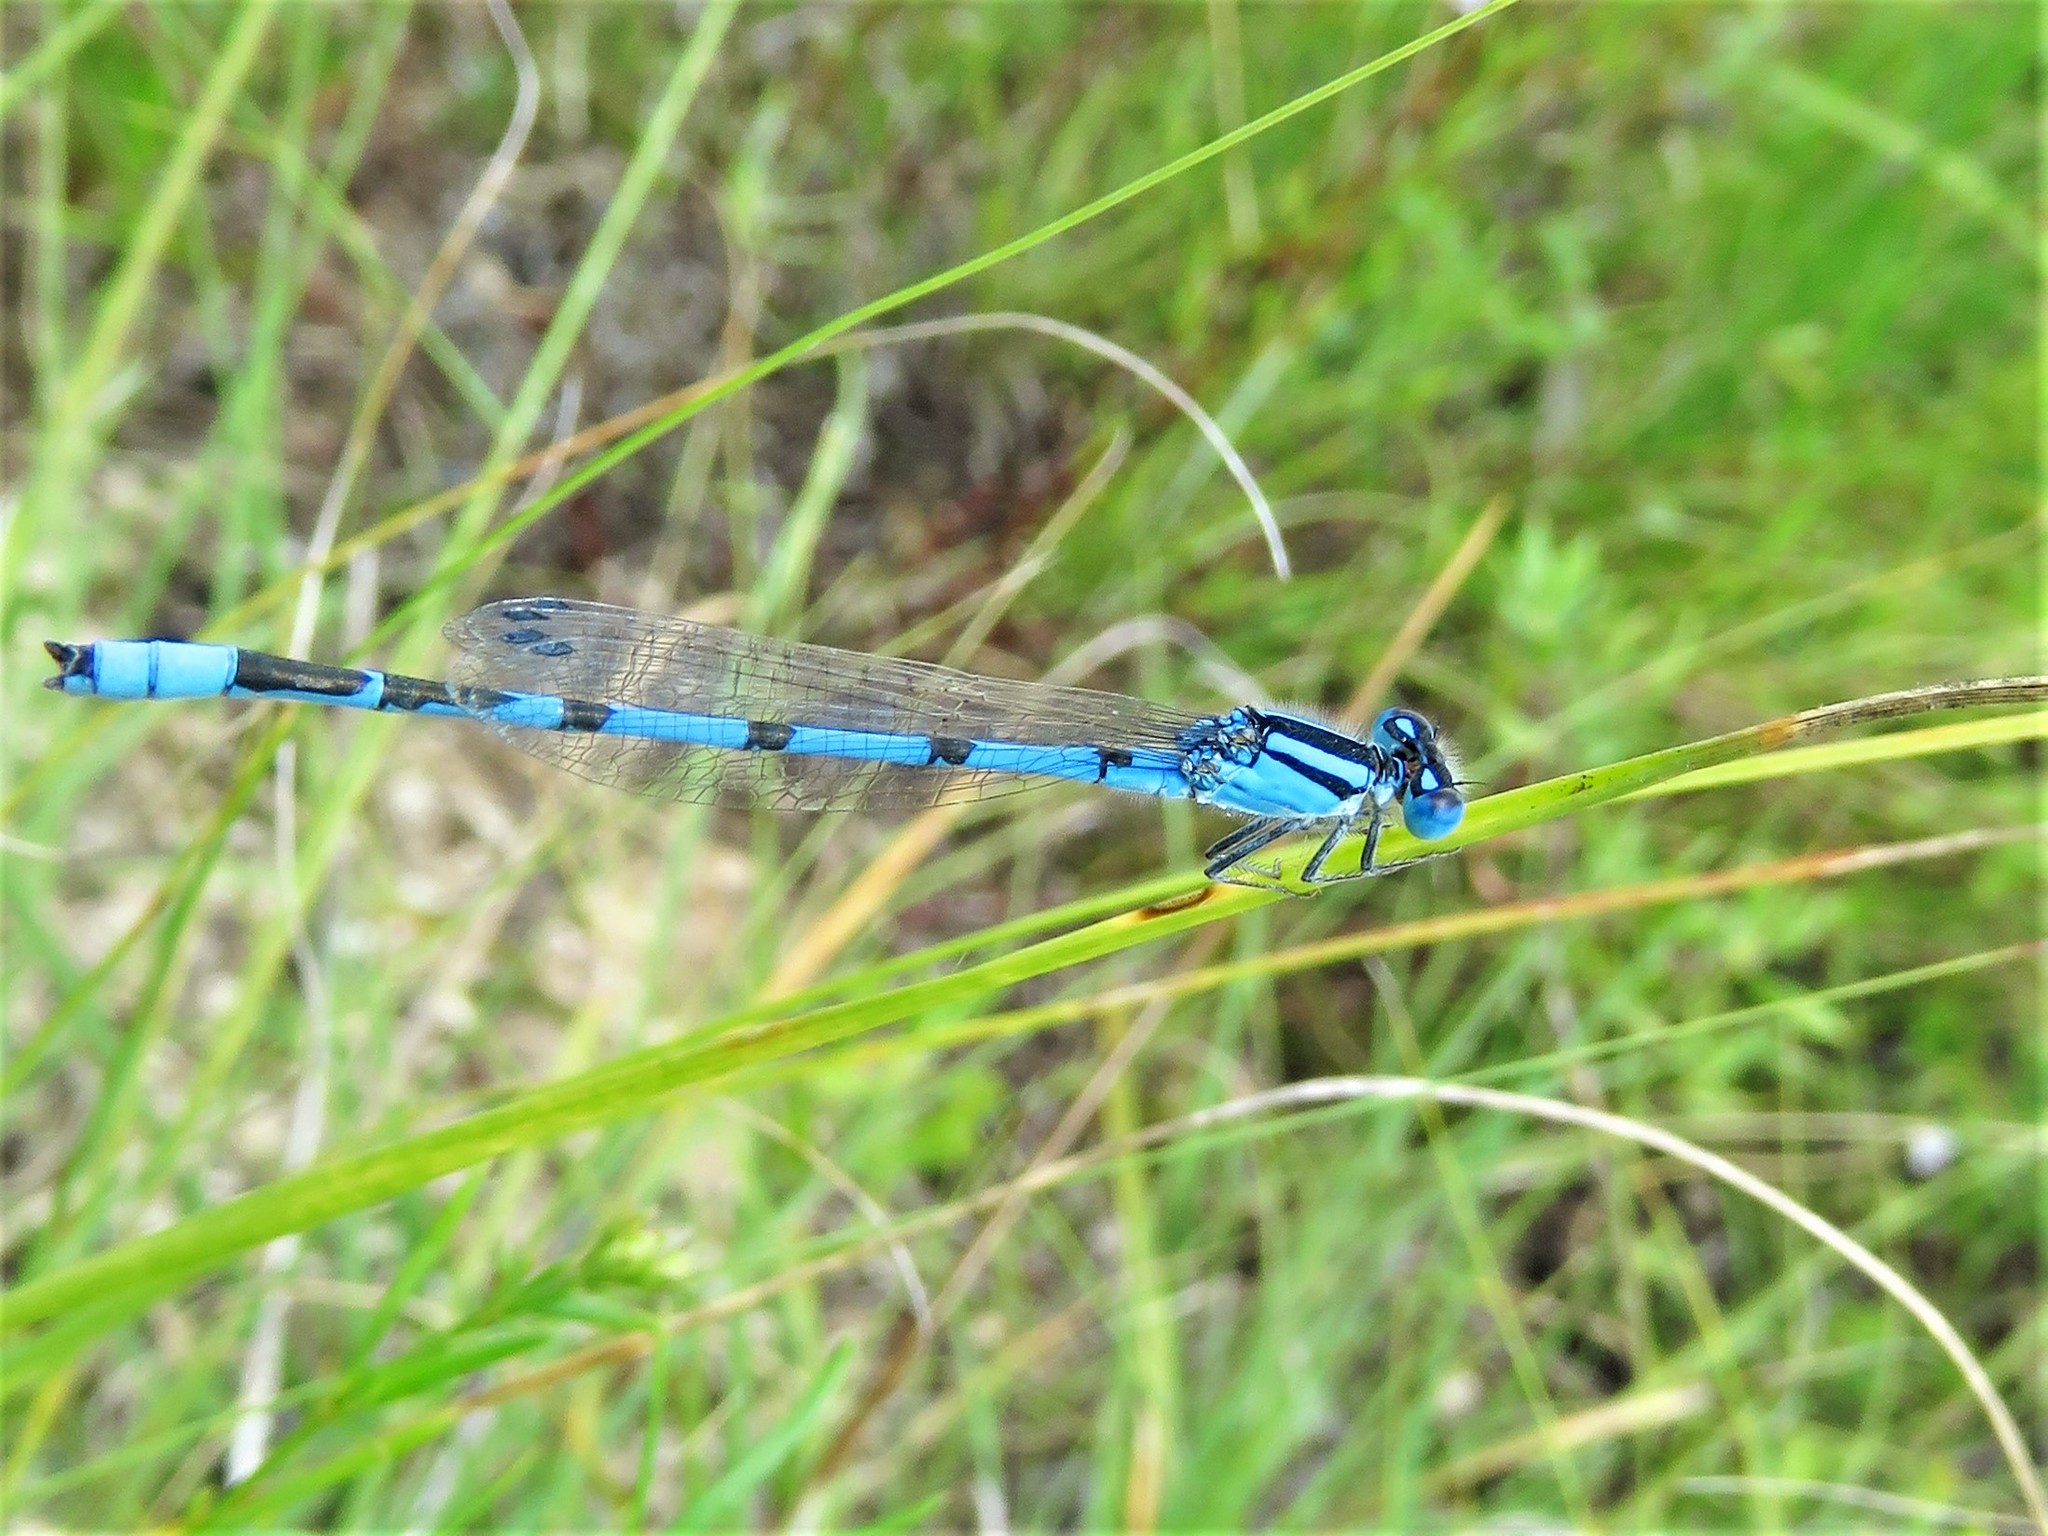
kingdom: Animalia
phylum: Arthropoda
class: Insecta
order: Odonata
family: Coenagrionidae
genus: Enallagma
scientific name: Enallagma civile
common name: Damselfly
